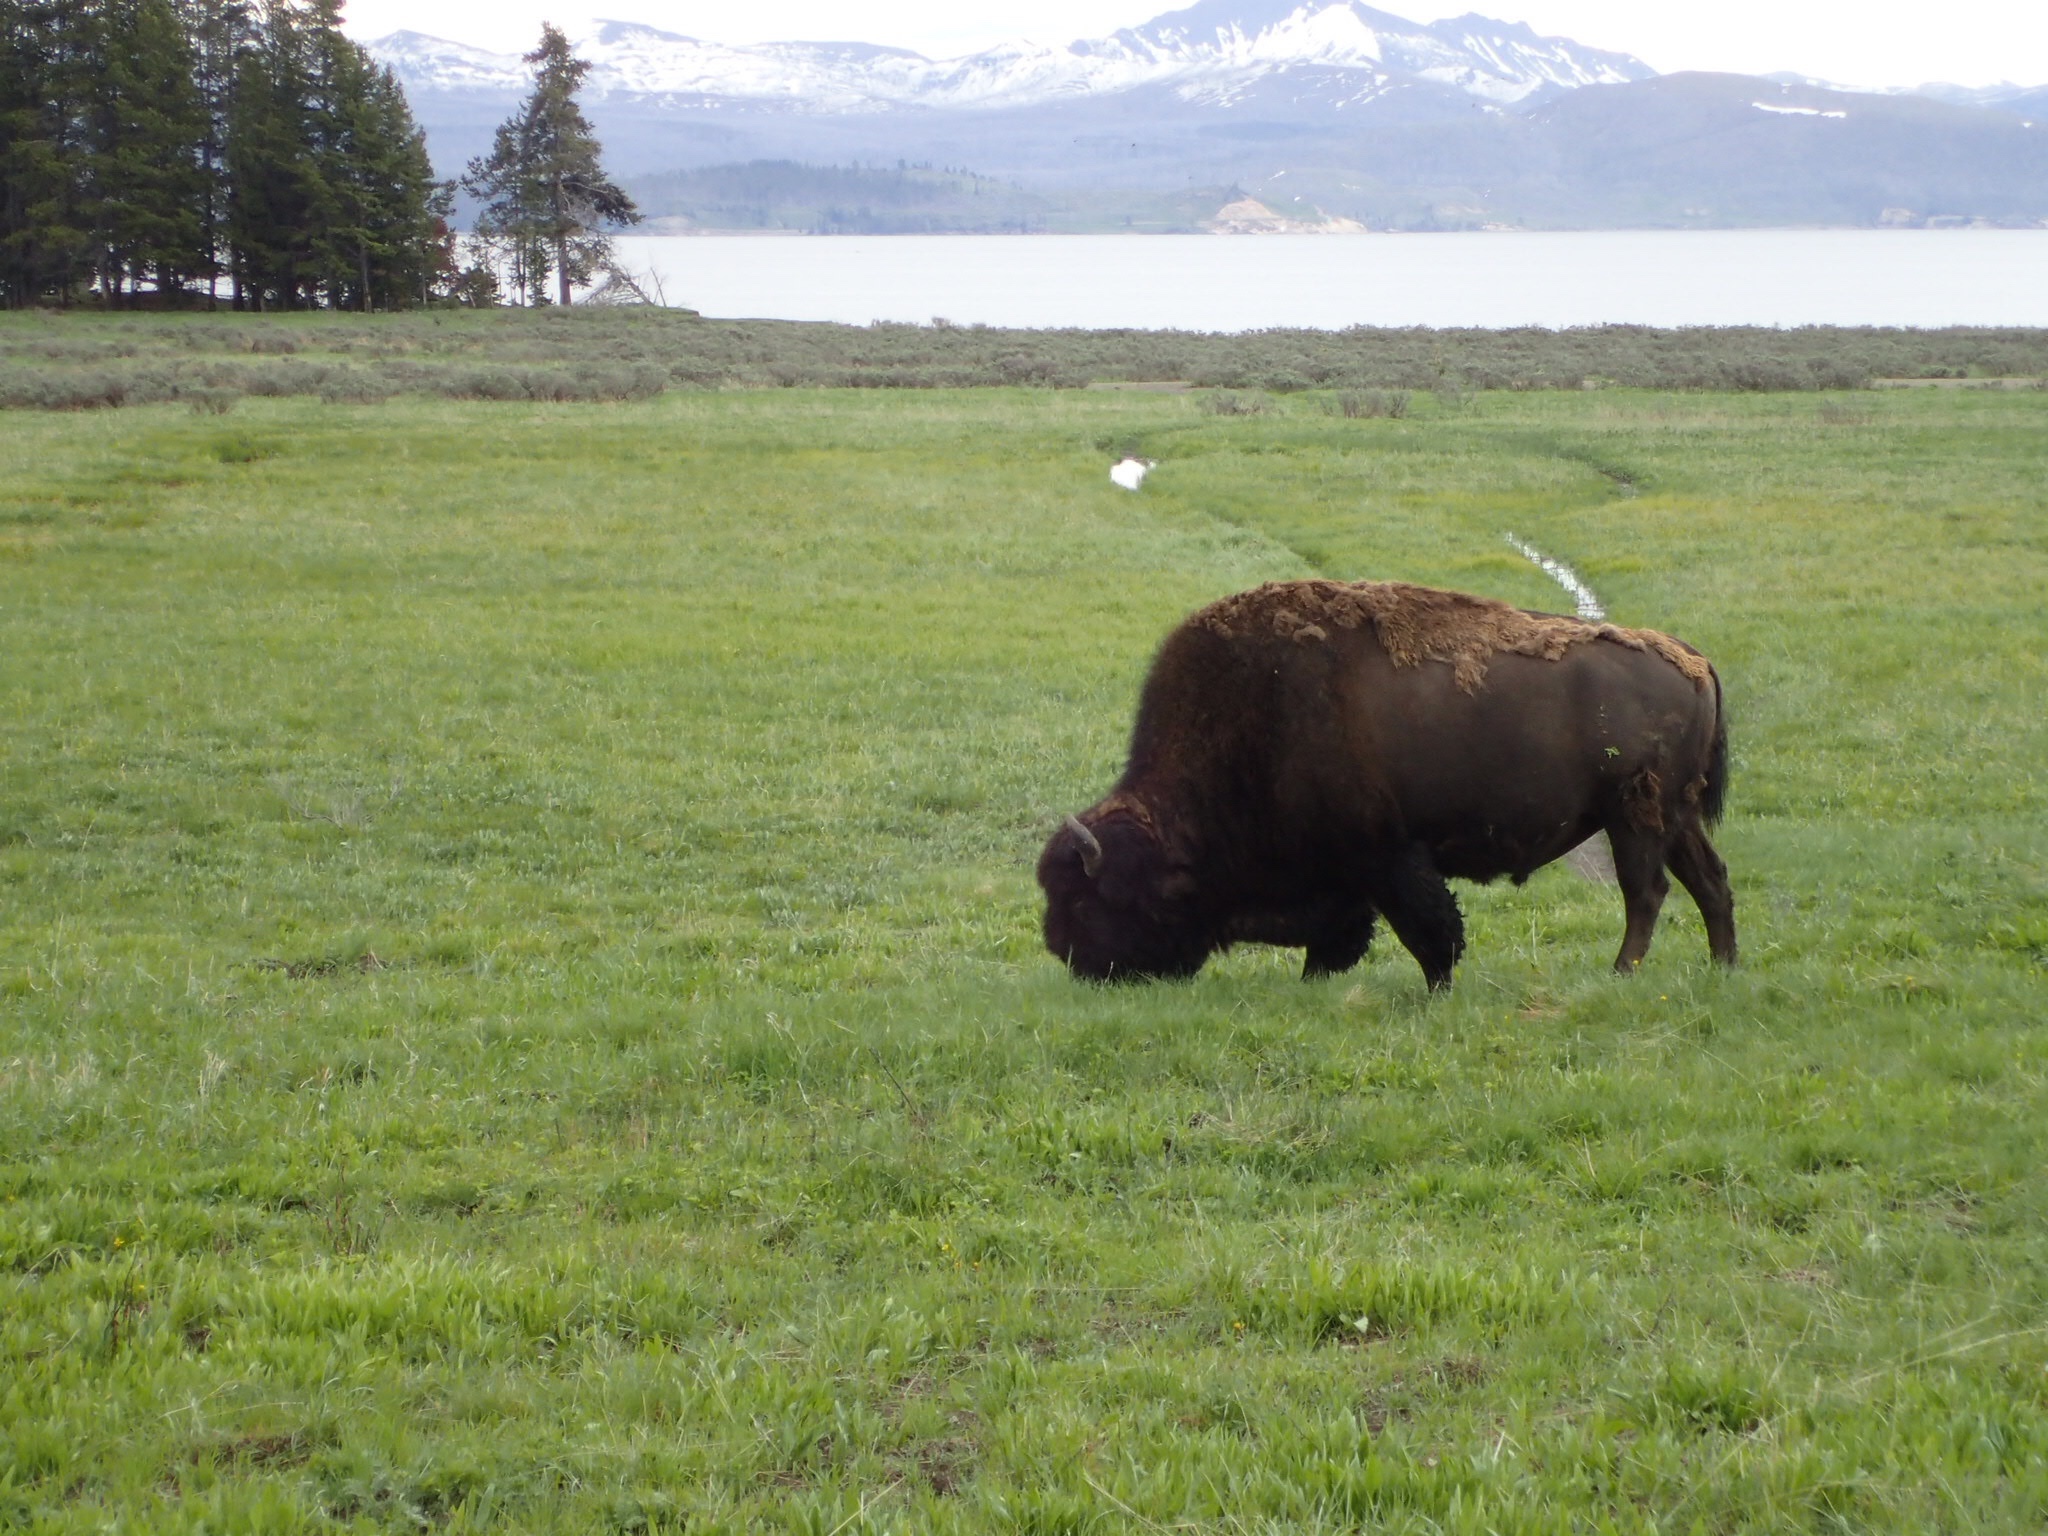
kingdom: Animalia
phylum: Chordata
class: Mammalia
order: Artiodactyla
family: Bovidae
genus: Bison
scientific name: Bison bison
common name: American bison
